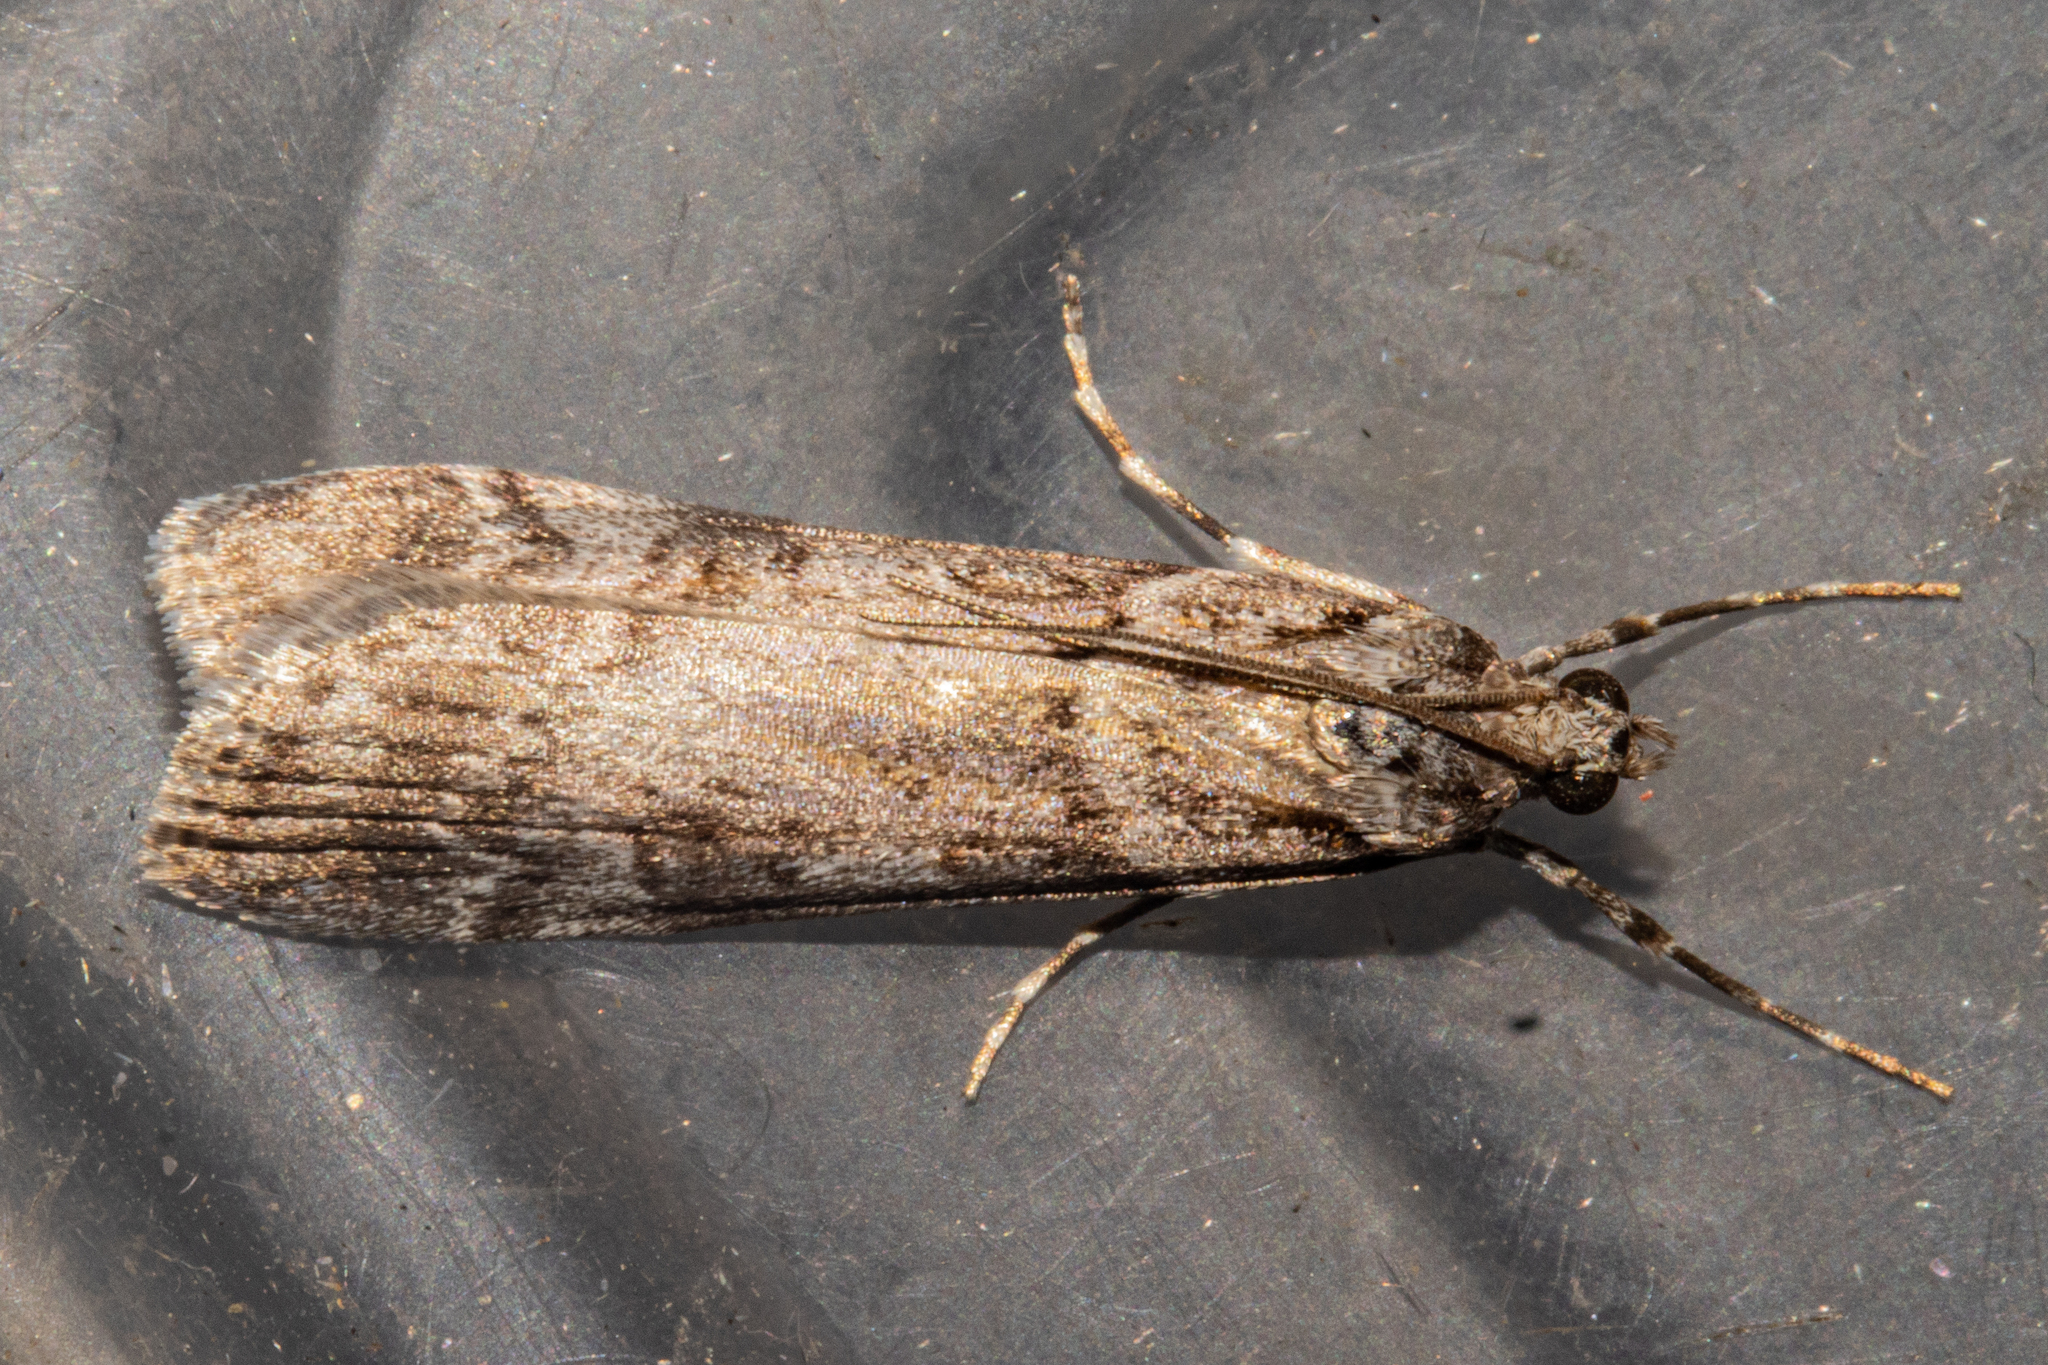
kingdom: Animalia
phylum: Arthropoda
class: Insecta
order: Lepidoptera
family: Crambidae
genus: Scoparia
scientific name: Scoparia petrina
